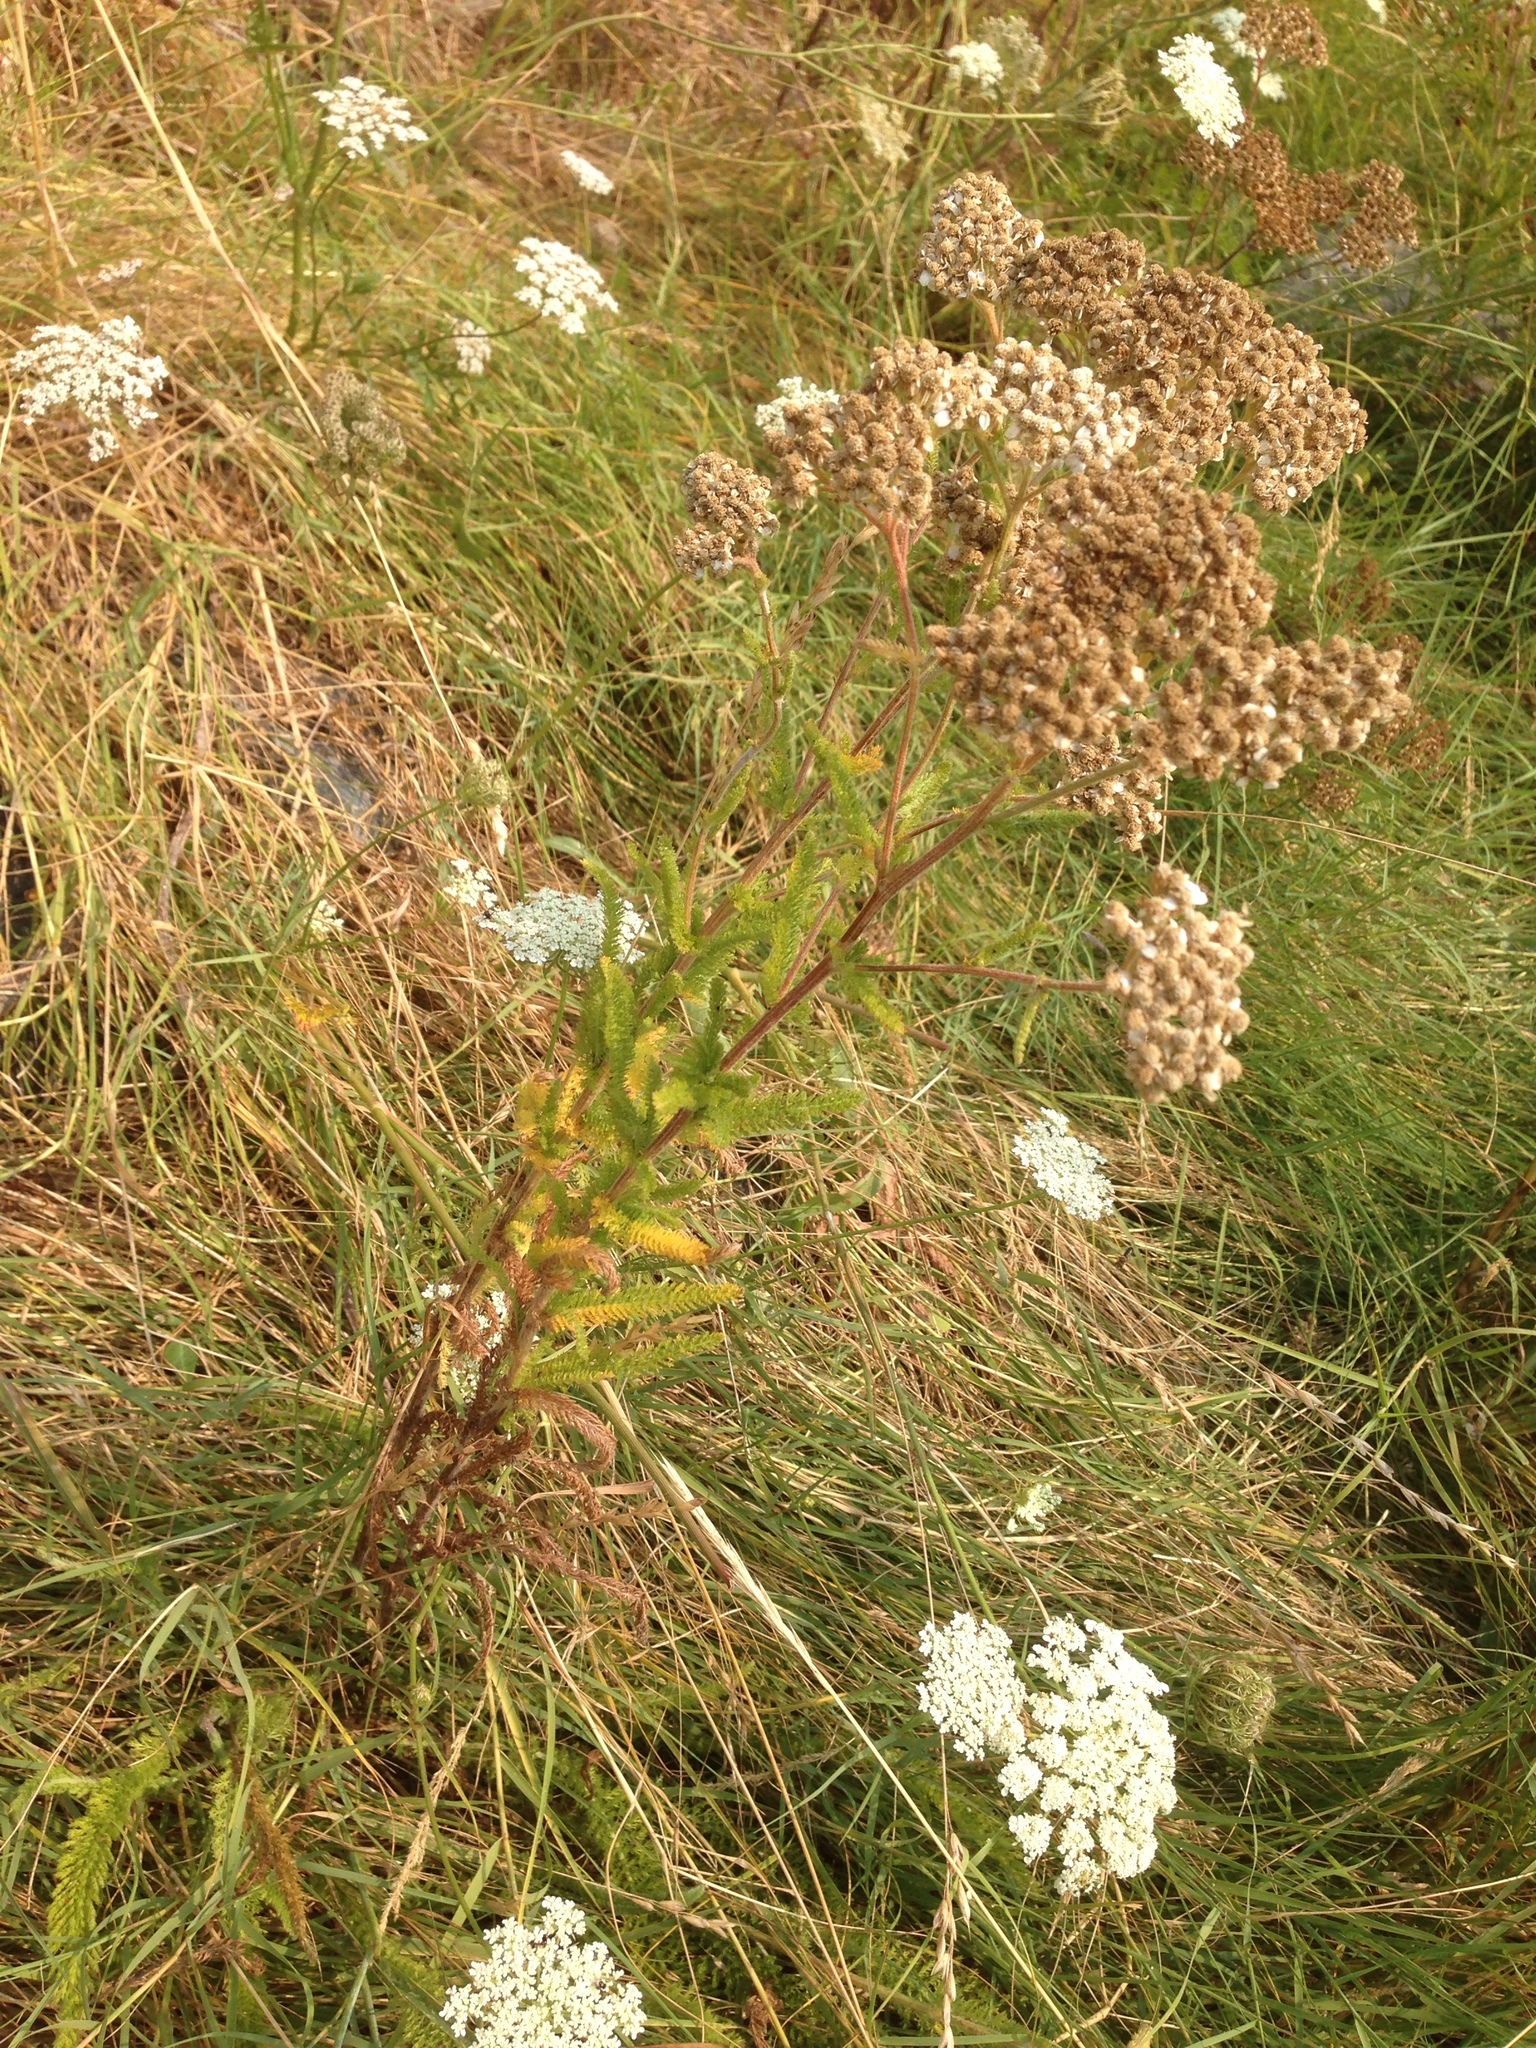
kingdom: Plantae
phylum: Tracheophyta
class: Magnoliopsida
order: Asterales
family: Asteraceae
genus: Achillea
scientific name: Achillea millefolium
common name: Yarrow
